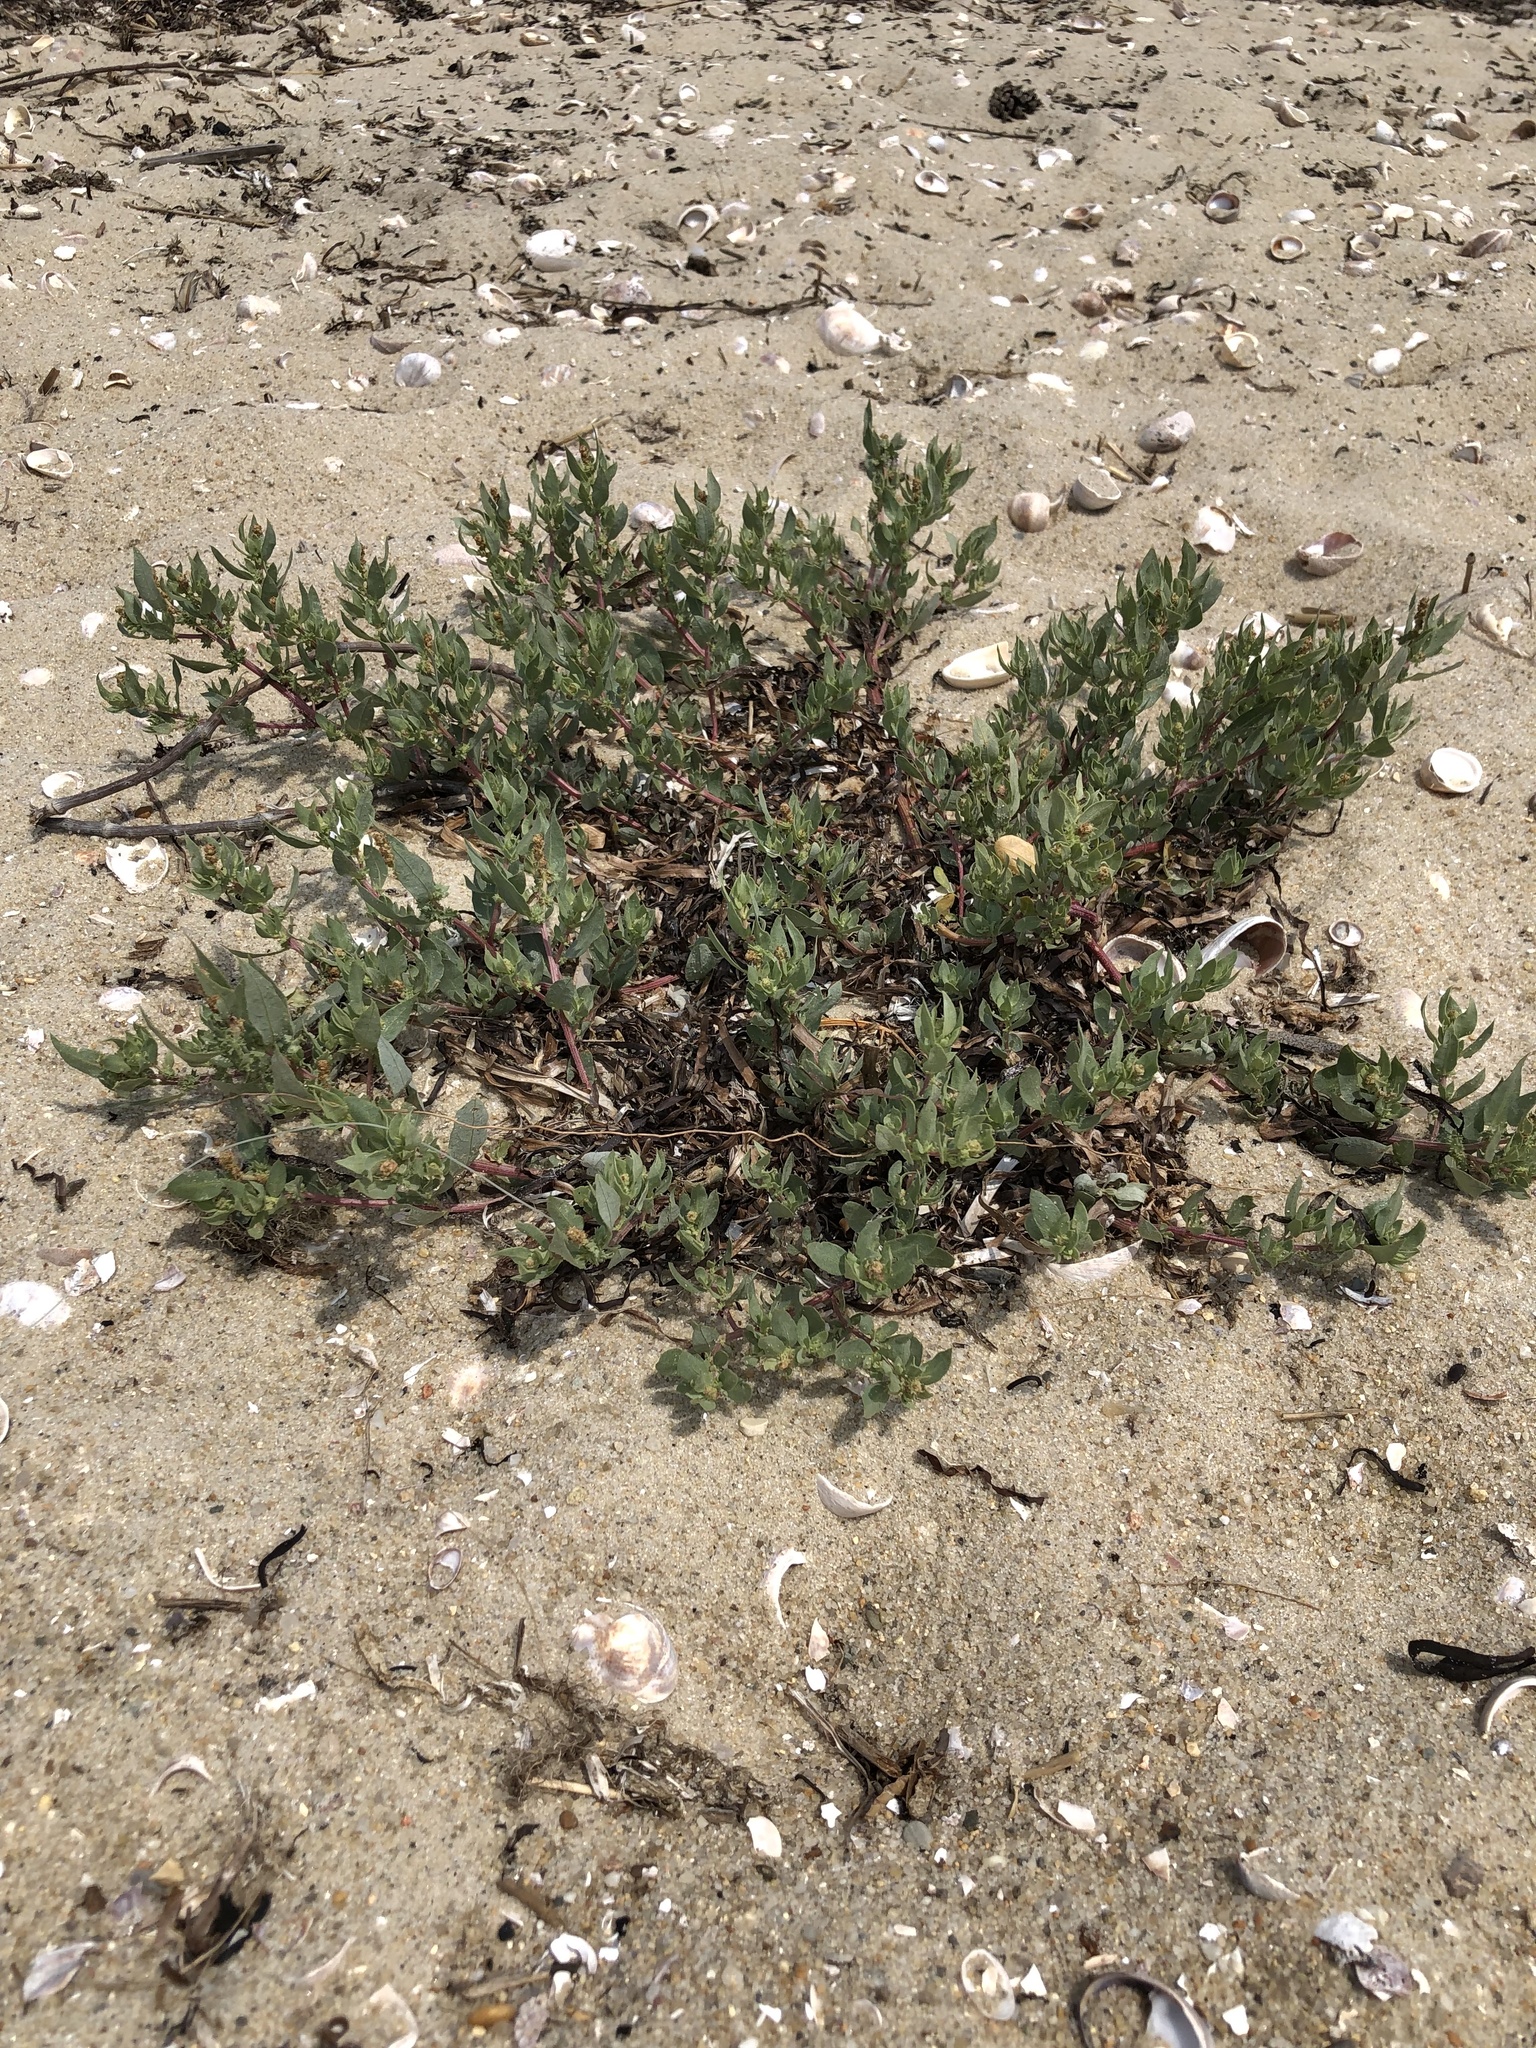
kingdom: Plantae
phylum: Tracheophyta
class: Magnoliopsida
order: Caryophyllales
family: Polygonaceae
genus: Polygonum
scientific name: Polygonum aviculare
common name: Prostrate knotweed
